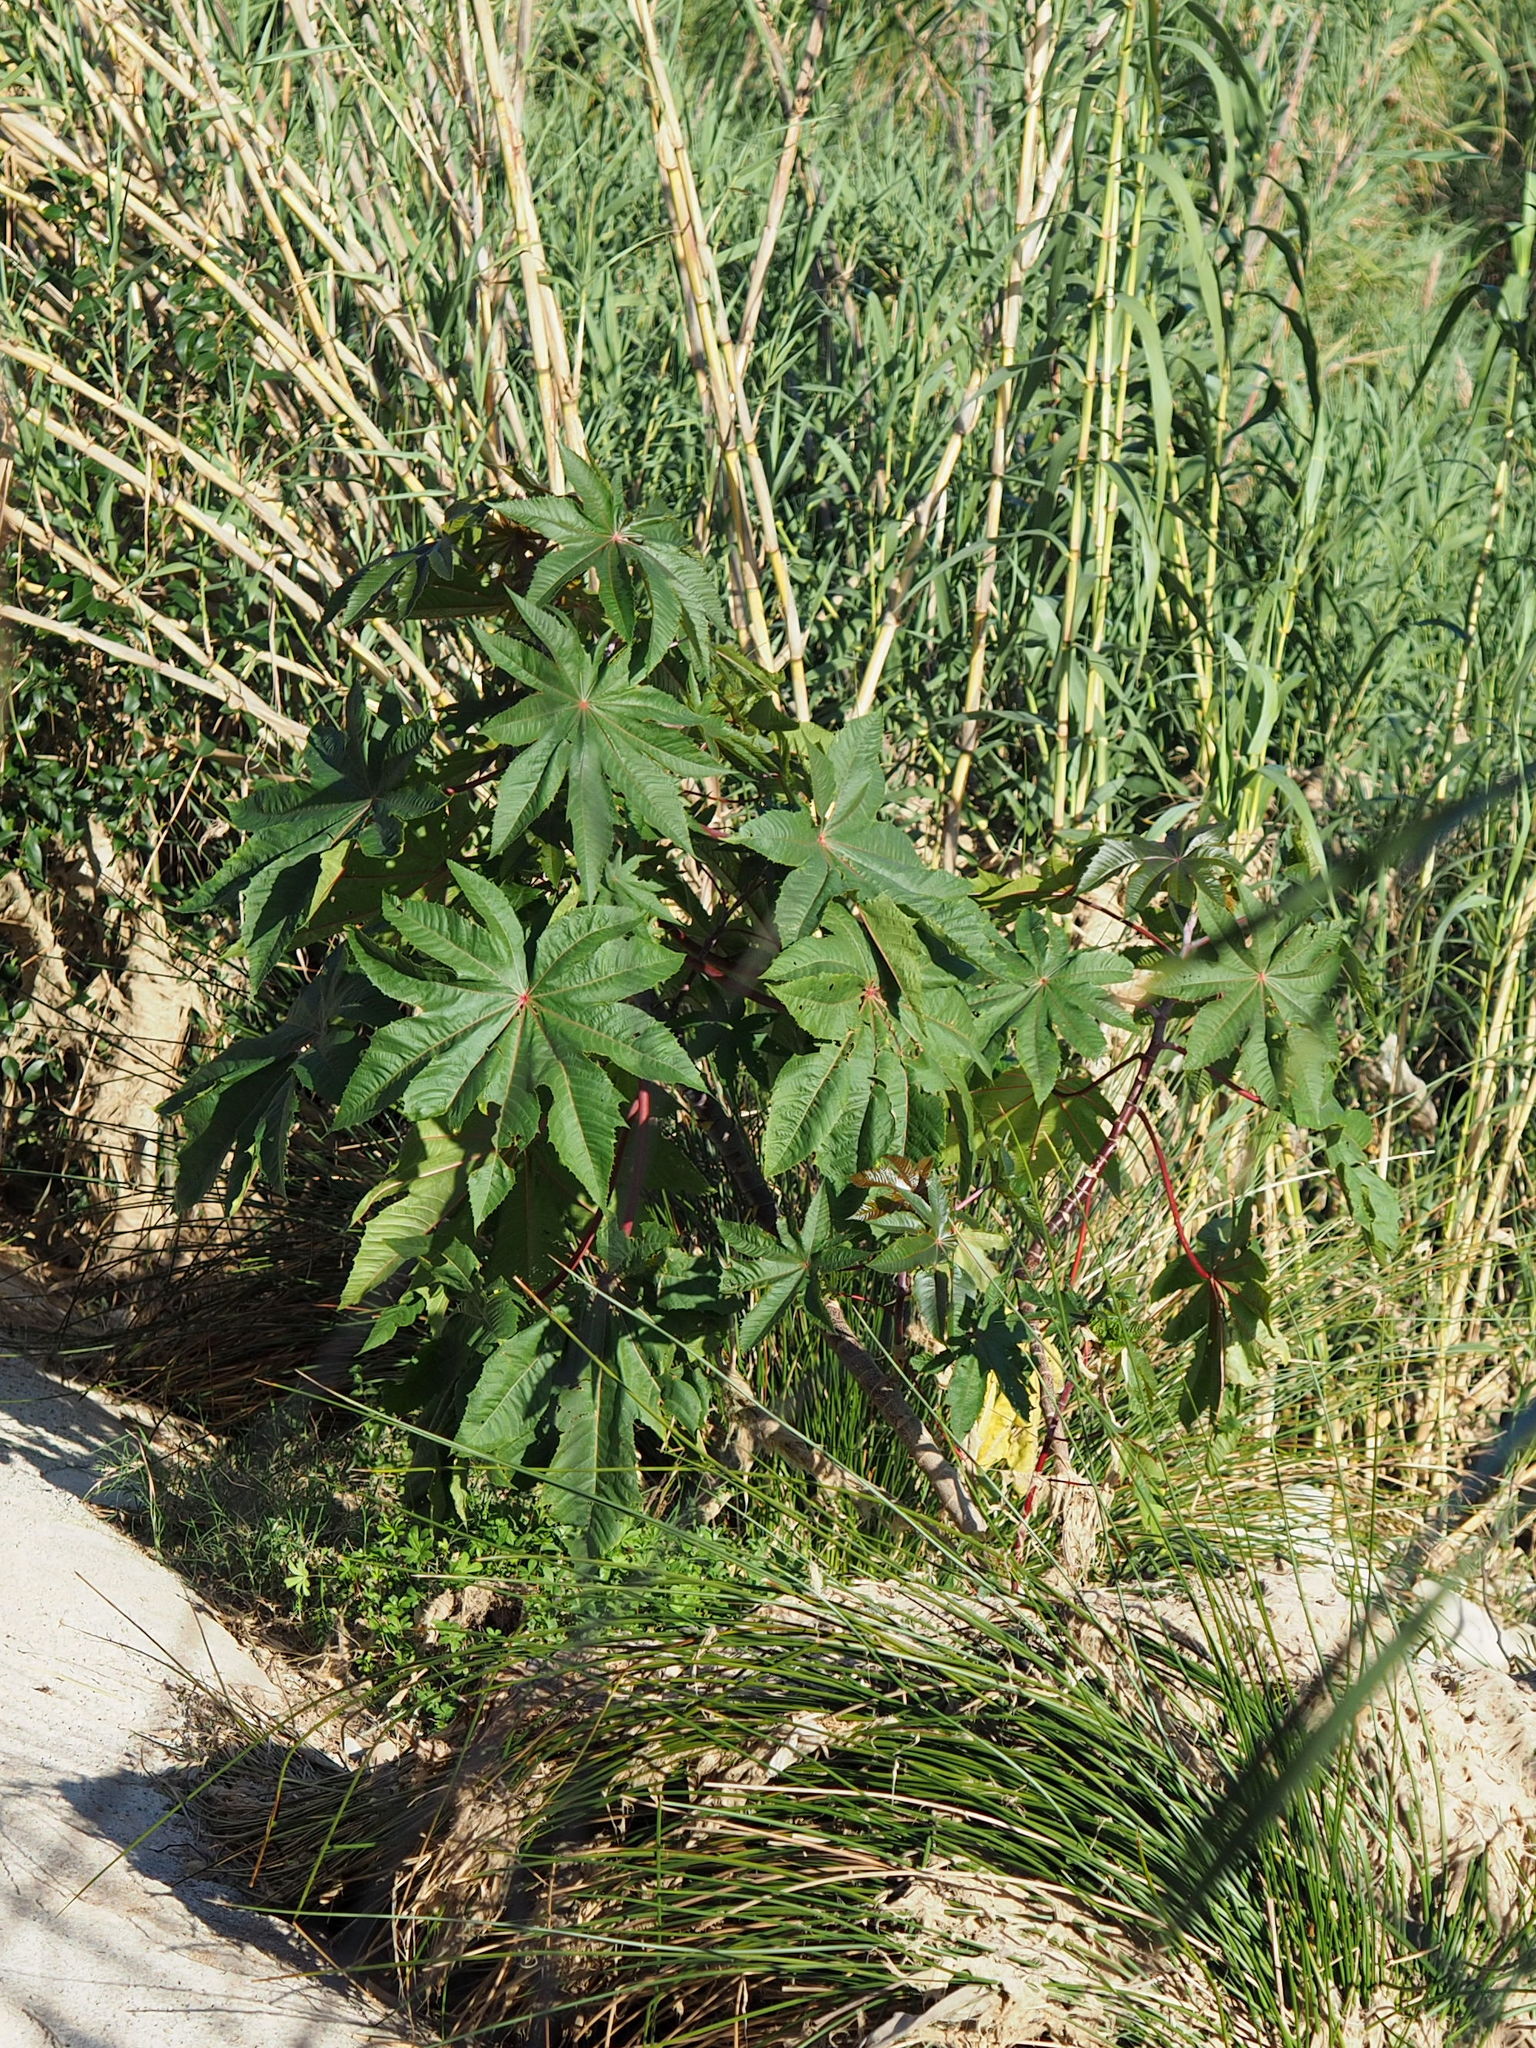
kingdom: Plantae
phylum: Tracheophyta
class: Magnoliopsida
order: Malpighiales
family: Euphorbiaceae
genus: Ricinus
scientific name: Ricinus communis
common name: Castor-oil-plant
